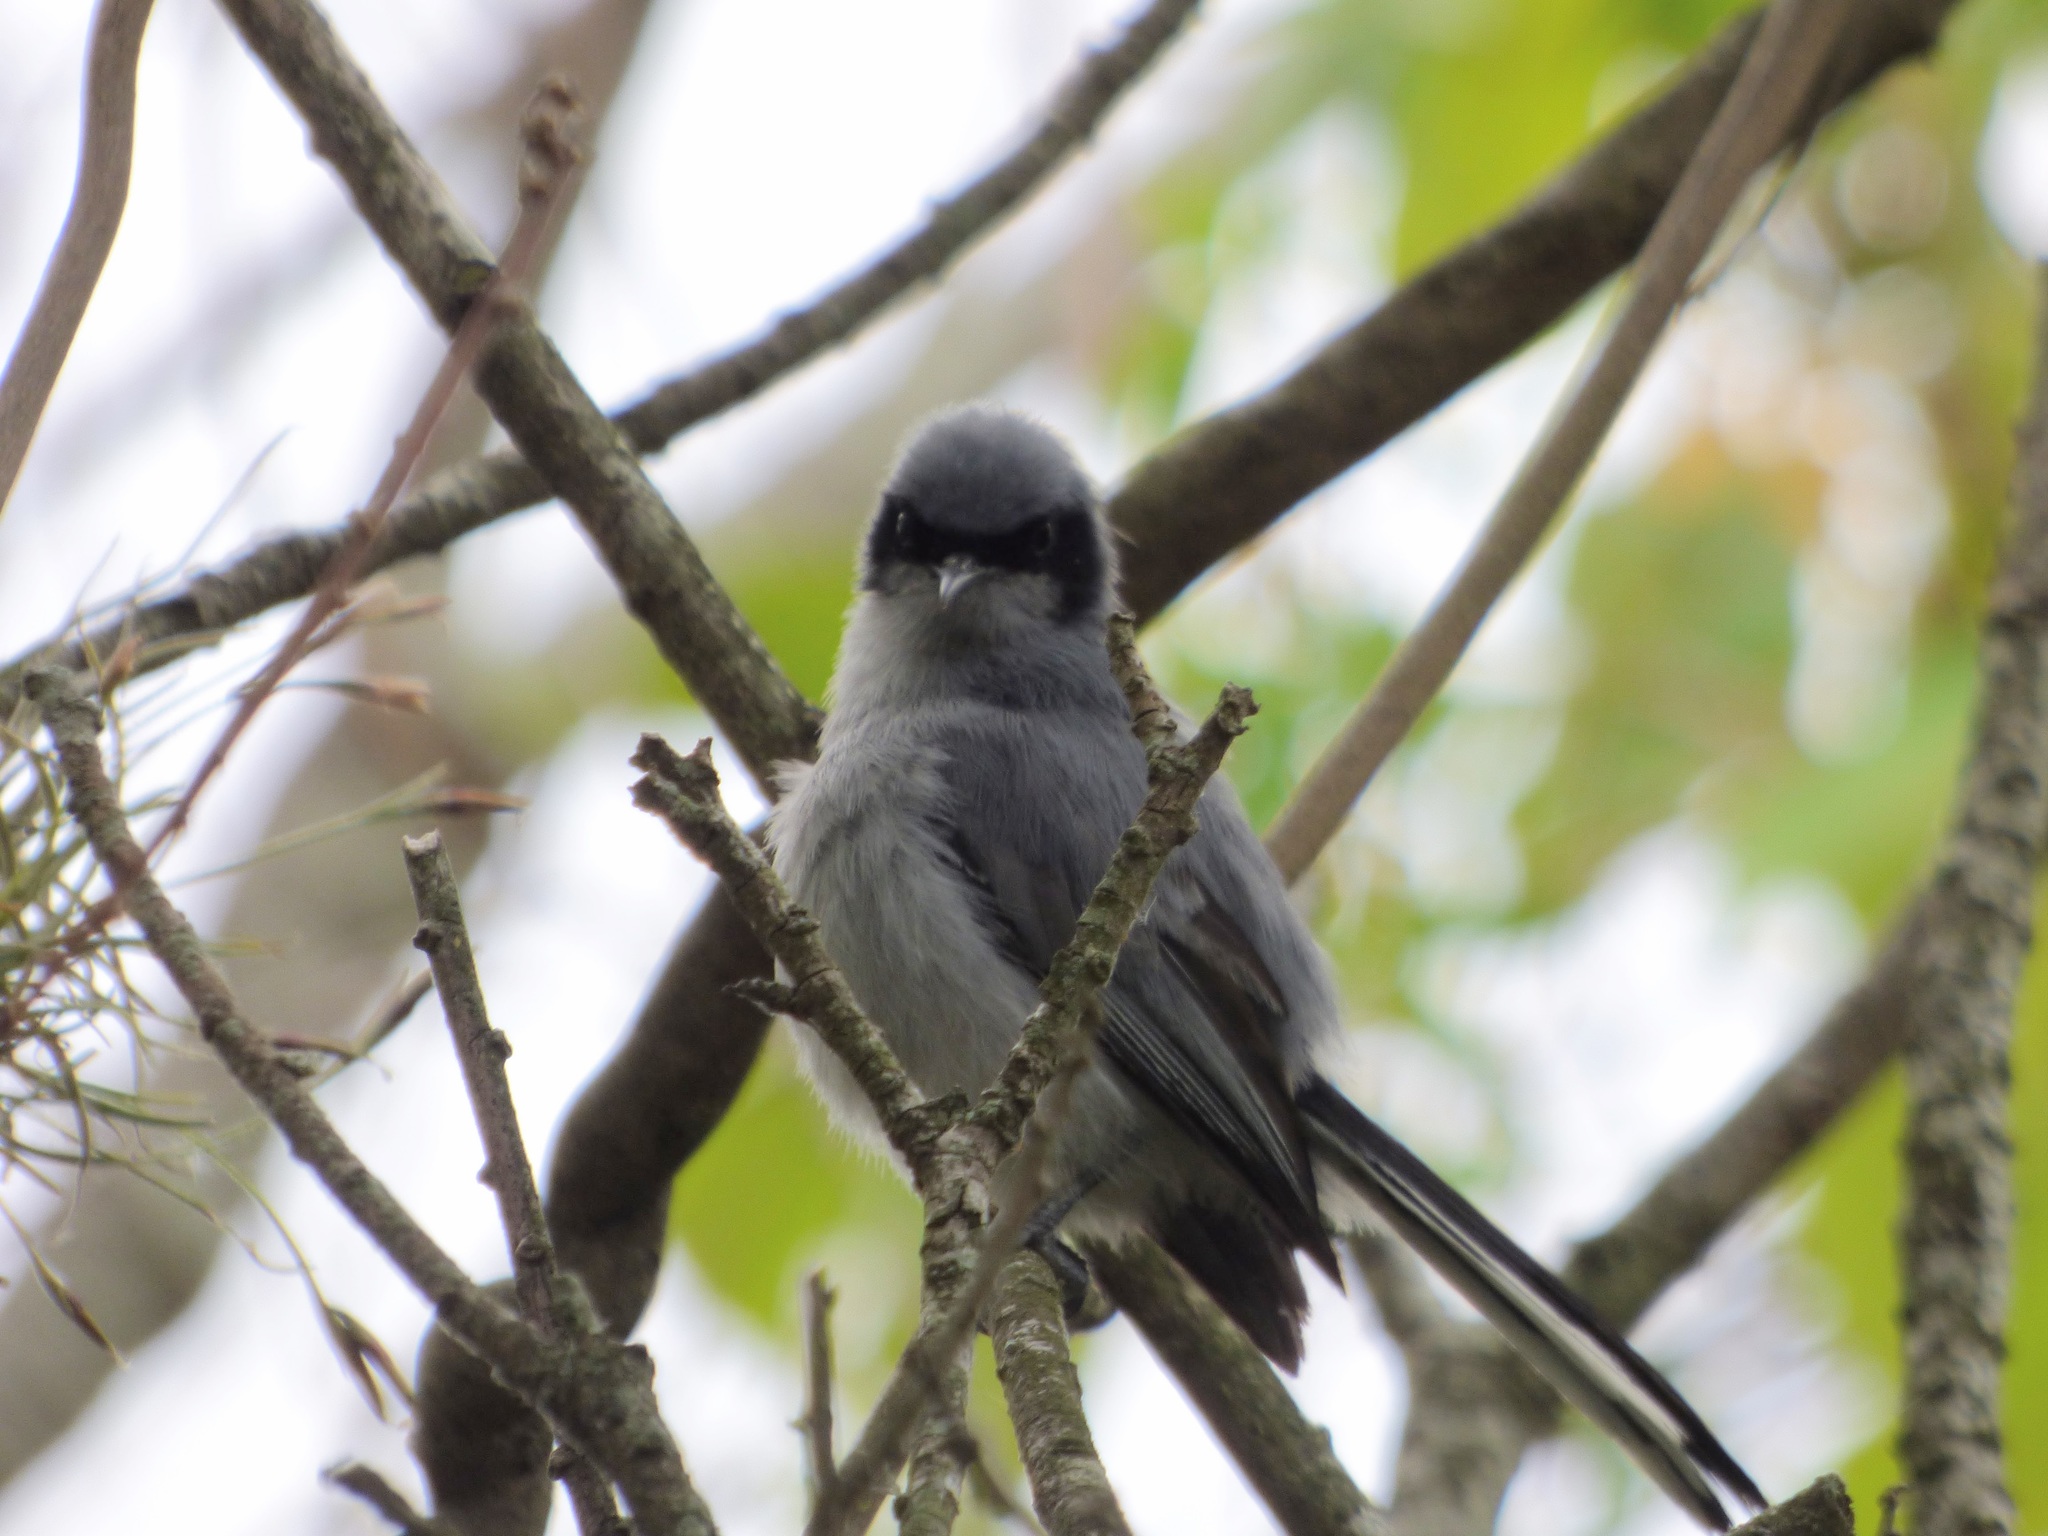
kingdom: Animalia
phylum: Chordata
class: Aves
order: Passeriformes
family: Polioptilidae
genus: Polioptila
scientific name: Polioptila dumicola
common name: Masked gnatcatcher
